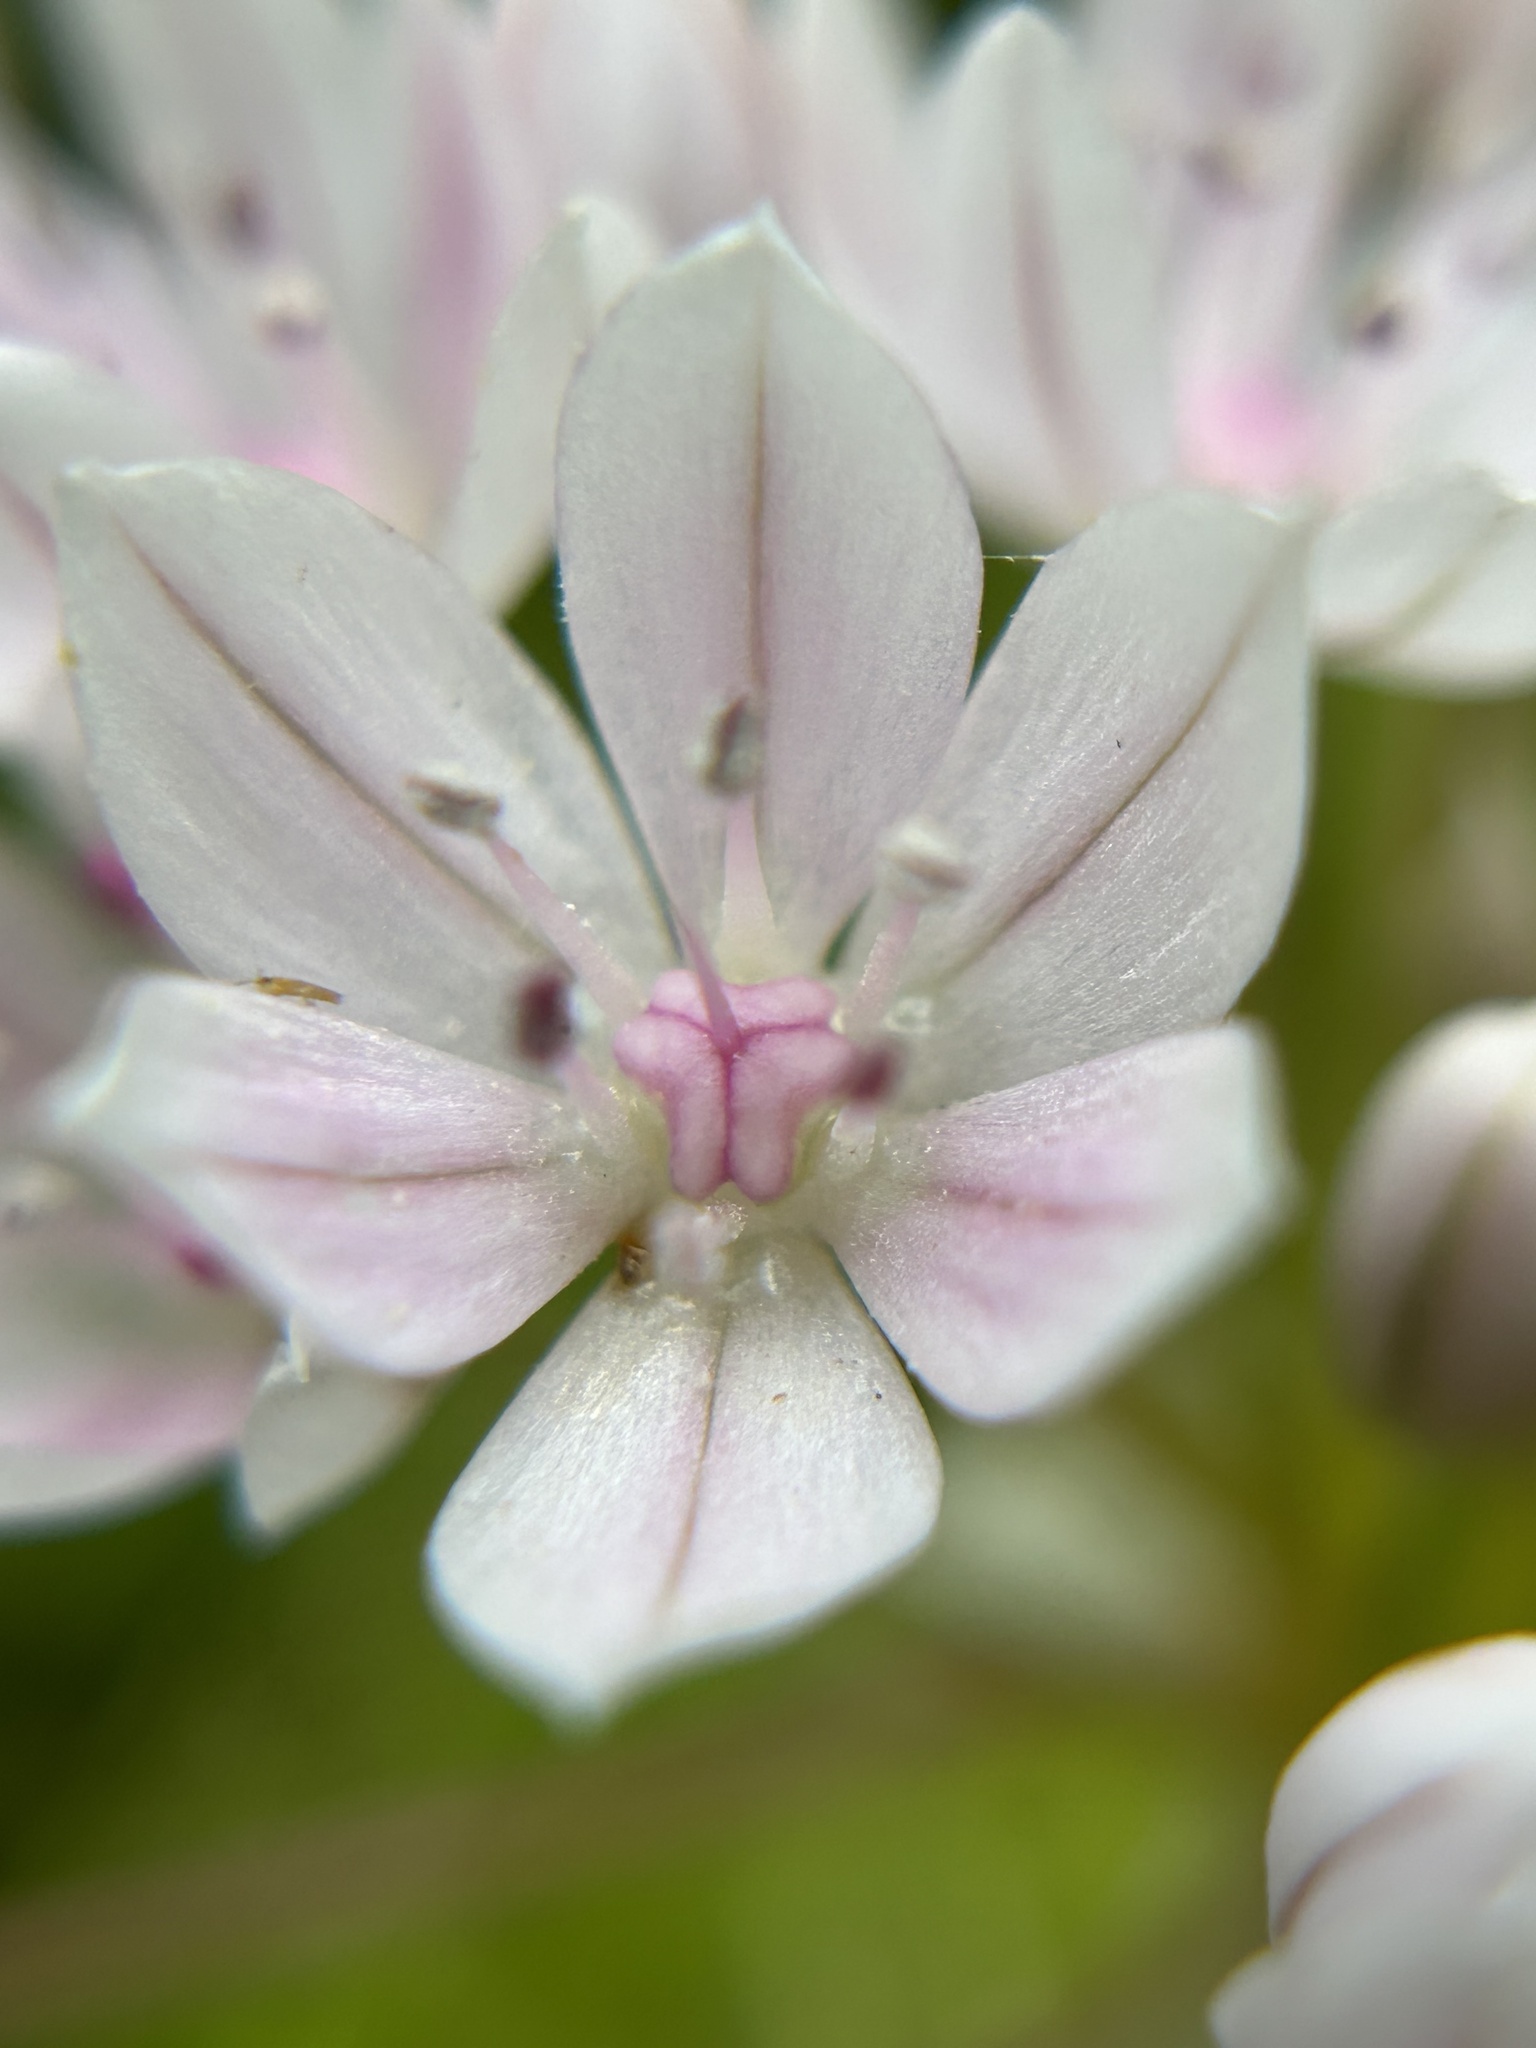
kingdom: Plantae
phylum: Tracheophyta
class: Liliopsida
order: Asparagales
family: Amaryllidaceae
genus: Allium
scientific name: Allium hyalinum
